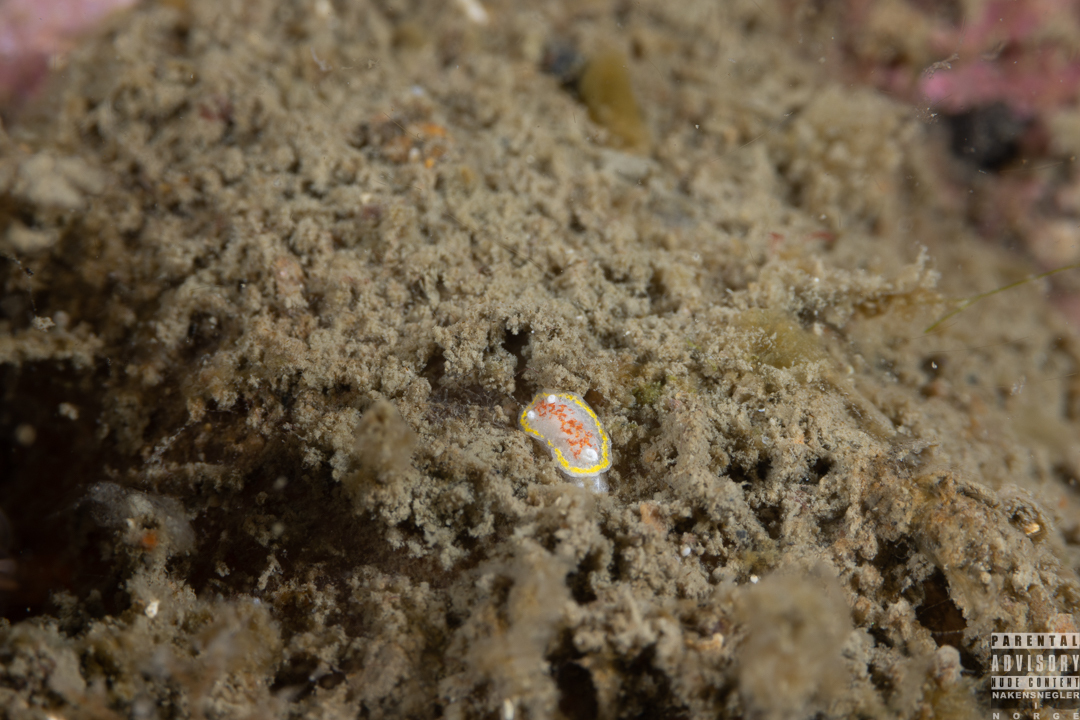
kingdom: Animalia
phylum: Mollusca
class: Gastropoda
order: Nudibranchia
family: Calycidorididae
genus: Diaphorodoris
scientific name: Diaphorodoris luteocincta
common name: Fried egg nudibranch
